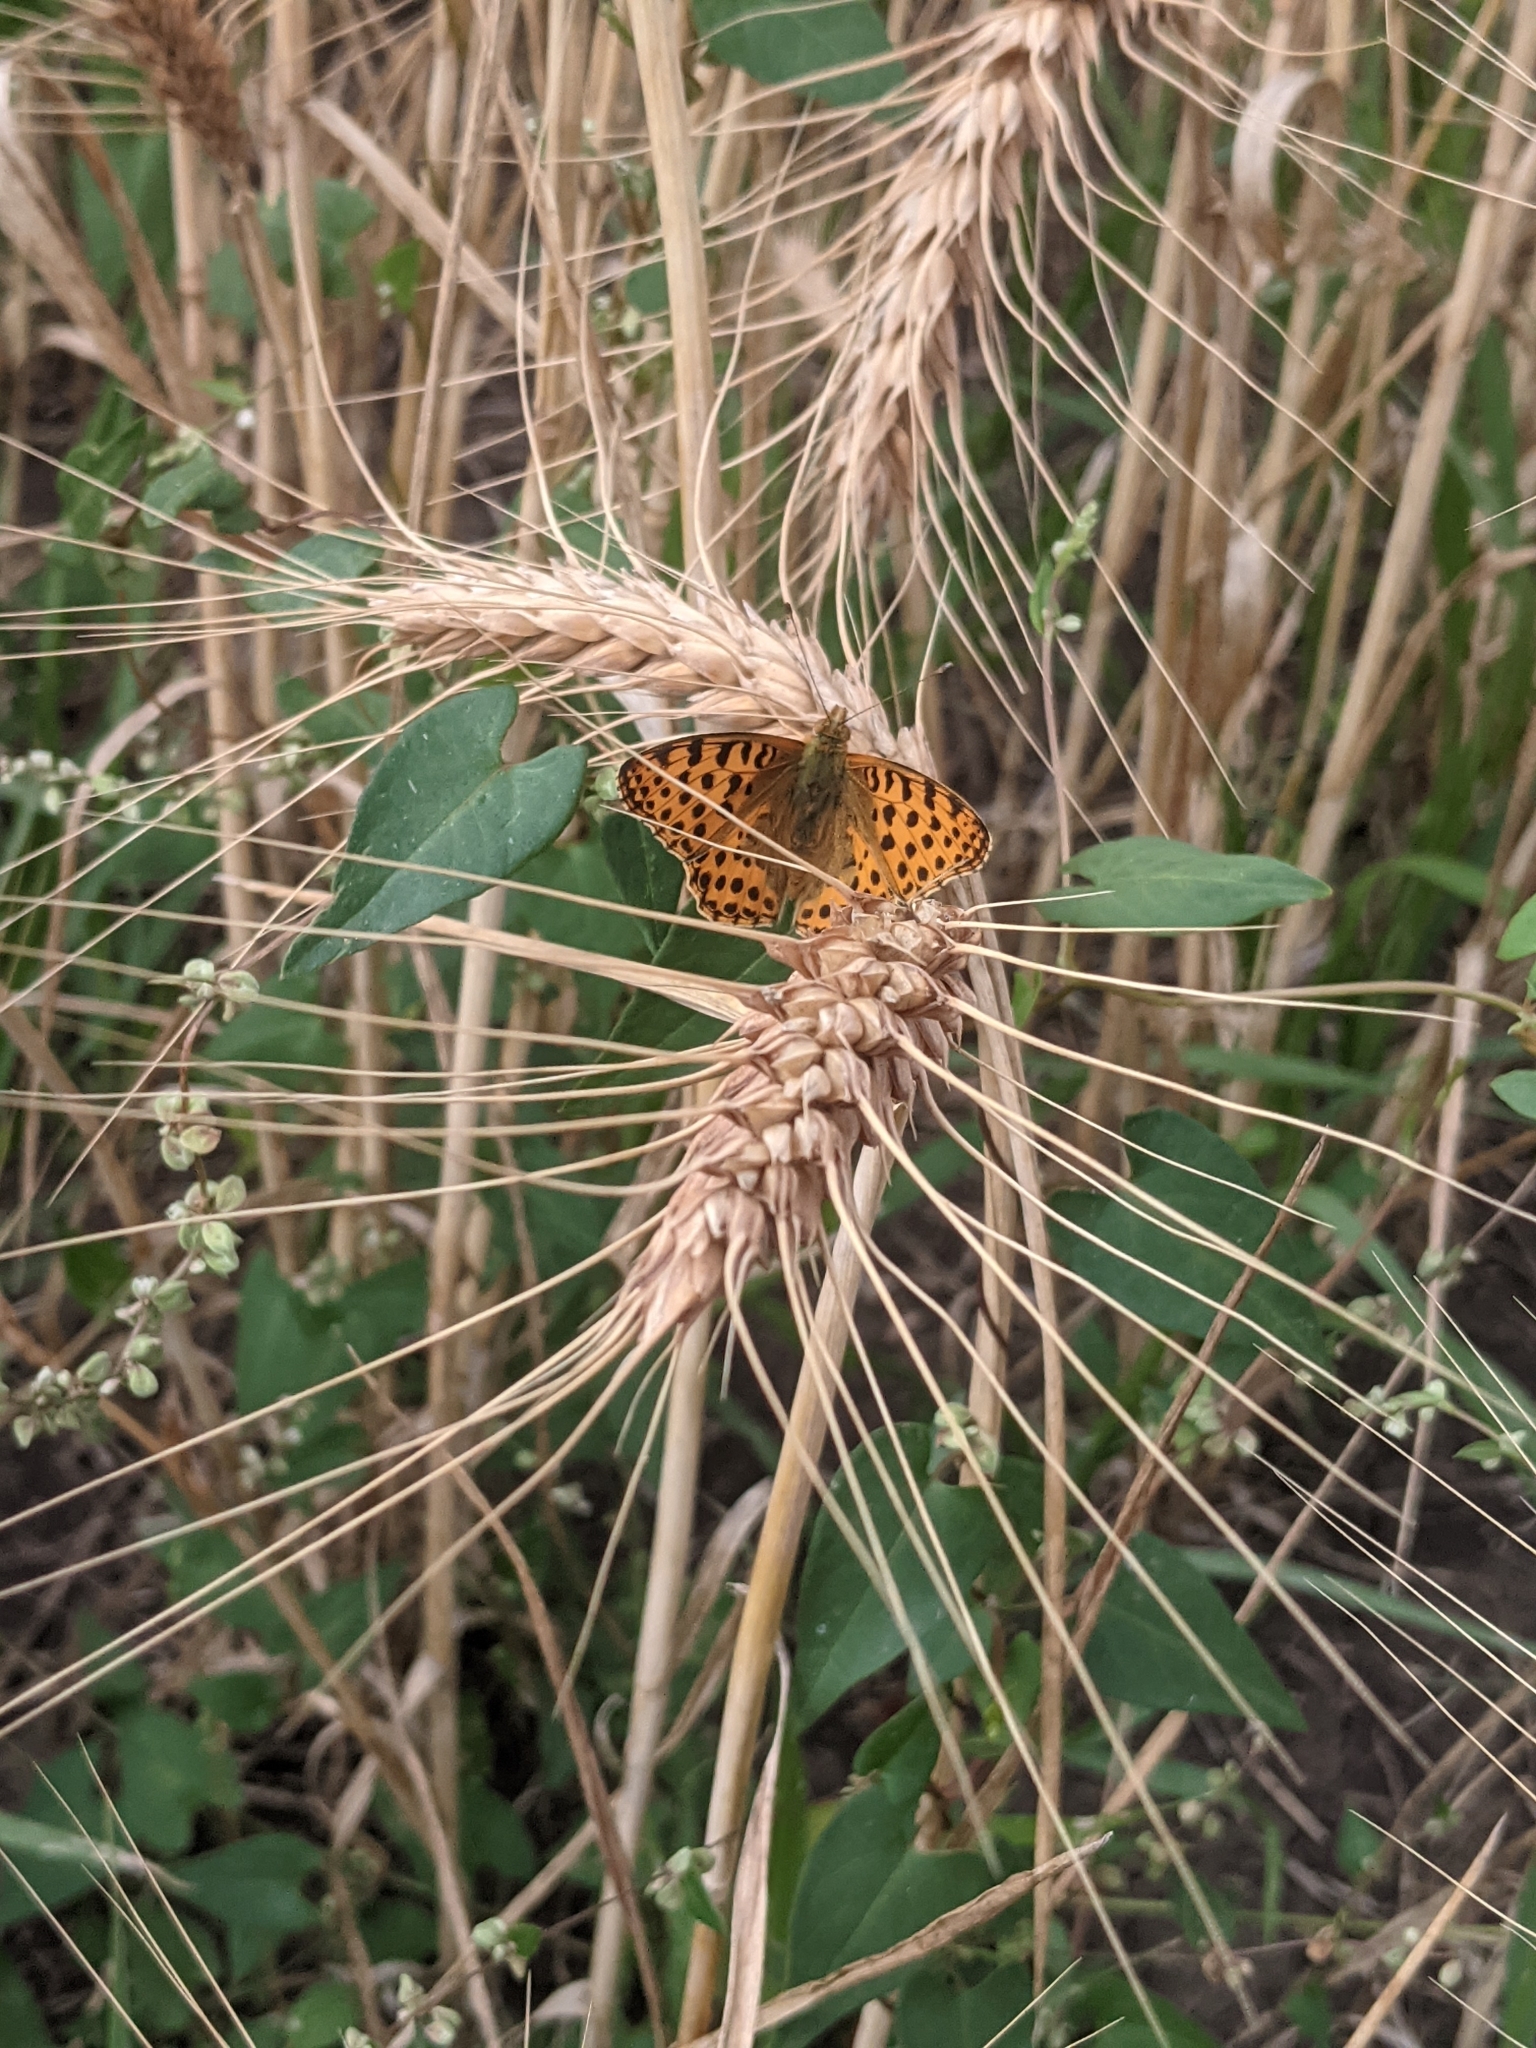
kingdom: Animalia
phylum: Arthropoda
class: Insecta
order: Lepidoptera
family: Nymphalidae
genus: Issoria
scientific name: Issoria lathonia
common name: Queen of spain fritillary
